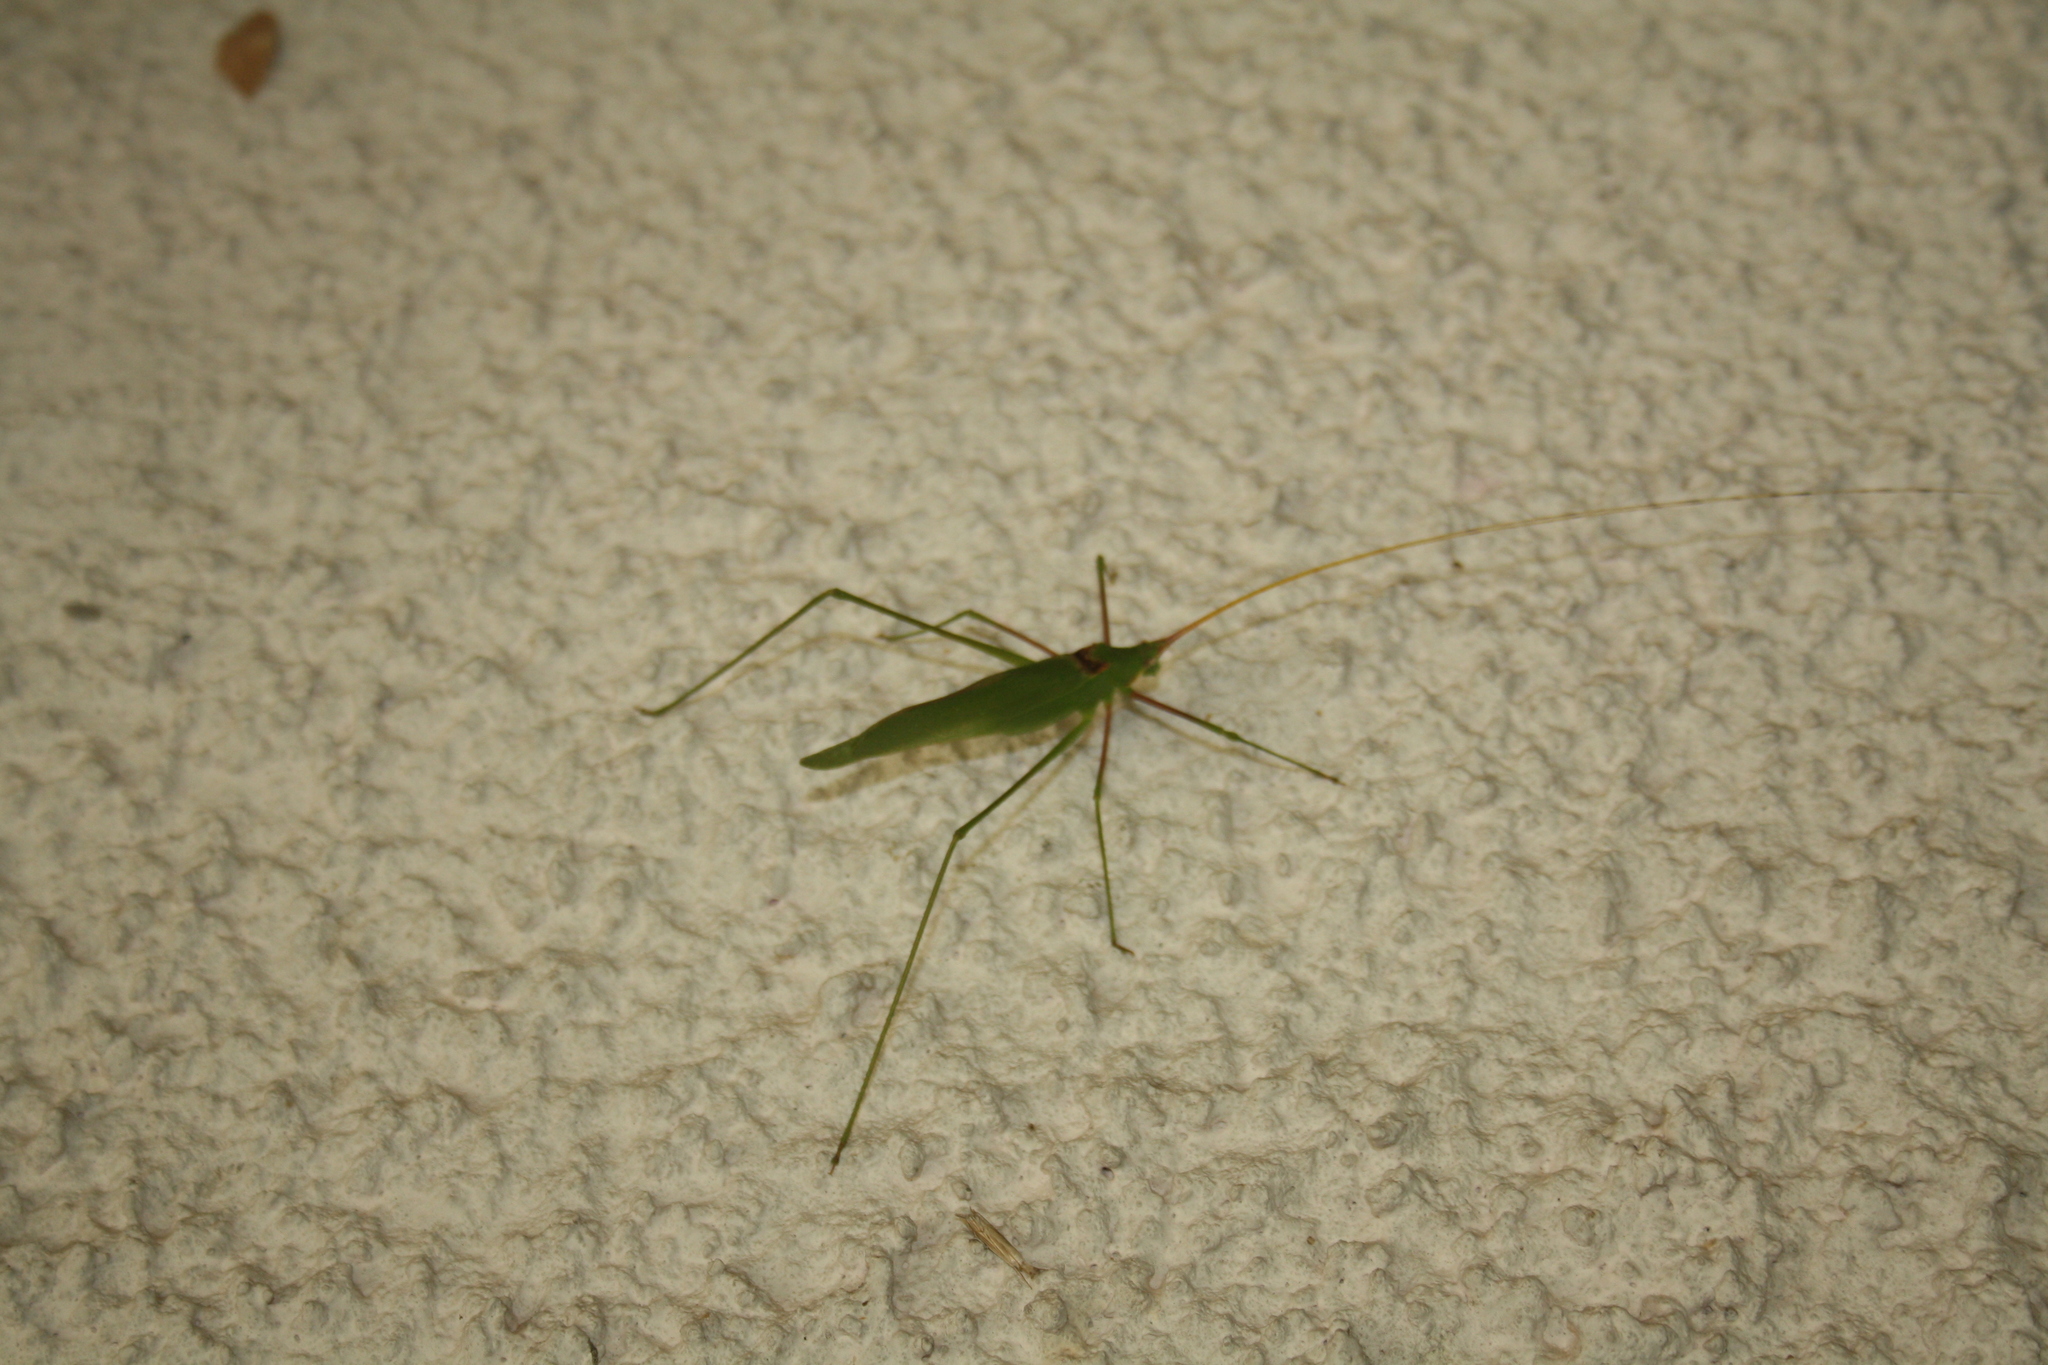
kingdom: Animalia
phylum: Arthropoda
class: Insecta
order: Orthoptera
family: Tettigoniidae
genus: Acrometopa
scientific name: Acrometopa servillea
